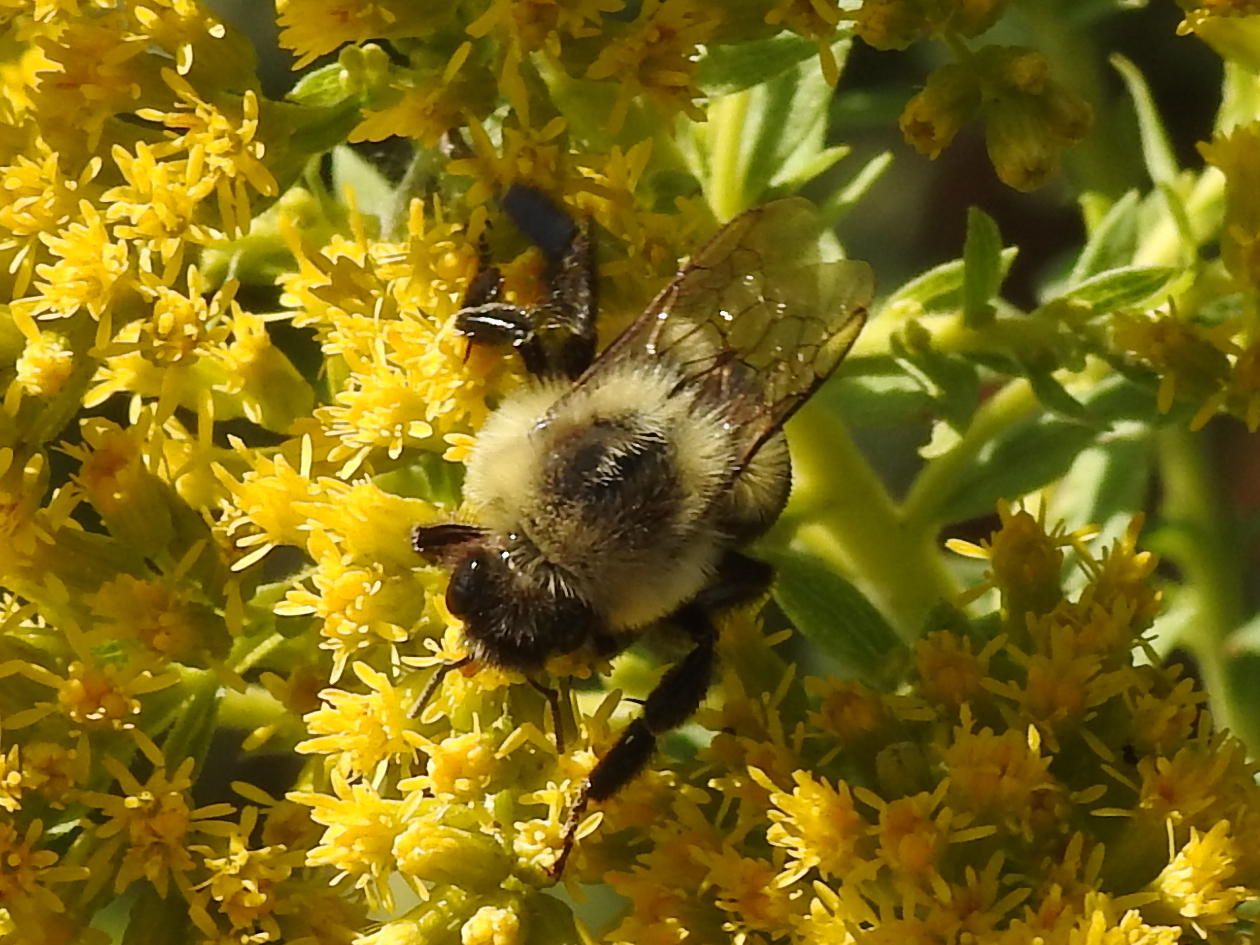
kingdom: Animalia
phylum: Arthropoda
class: Insecta
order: Hymenoptera
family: Apidae
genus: Bombus
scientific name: Bombus impatiens
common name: Common eastern bumble bee
